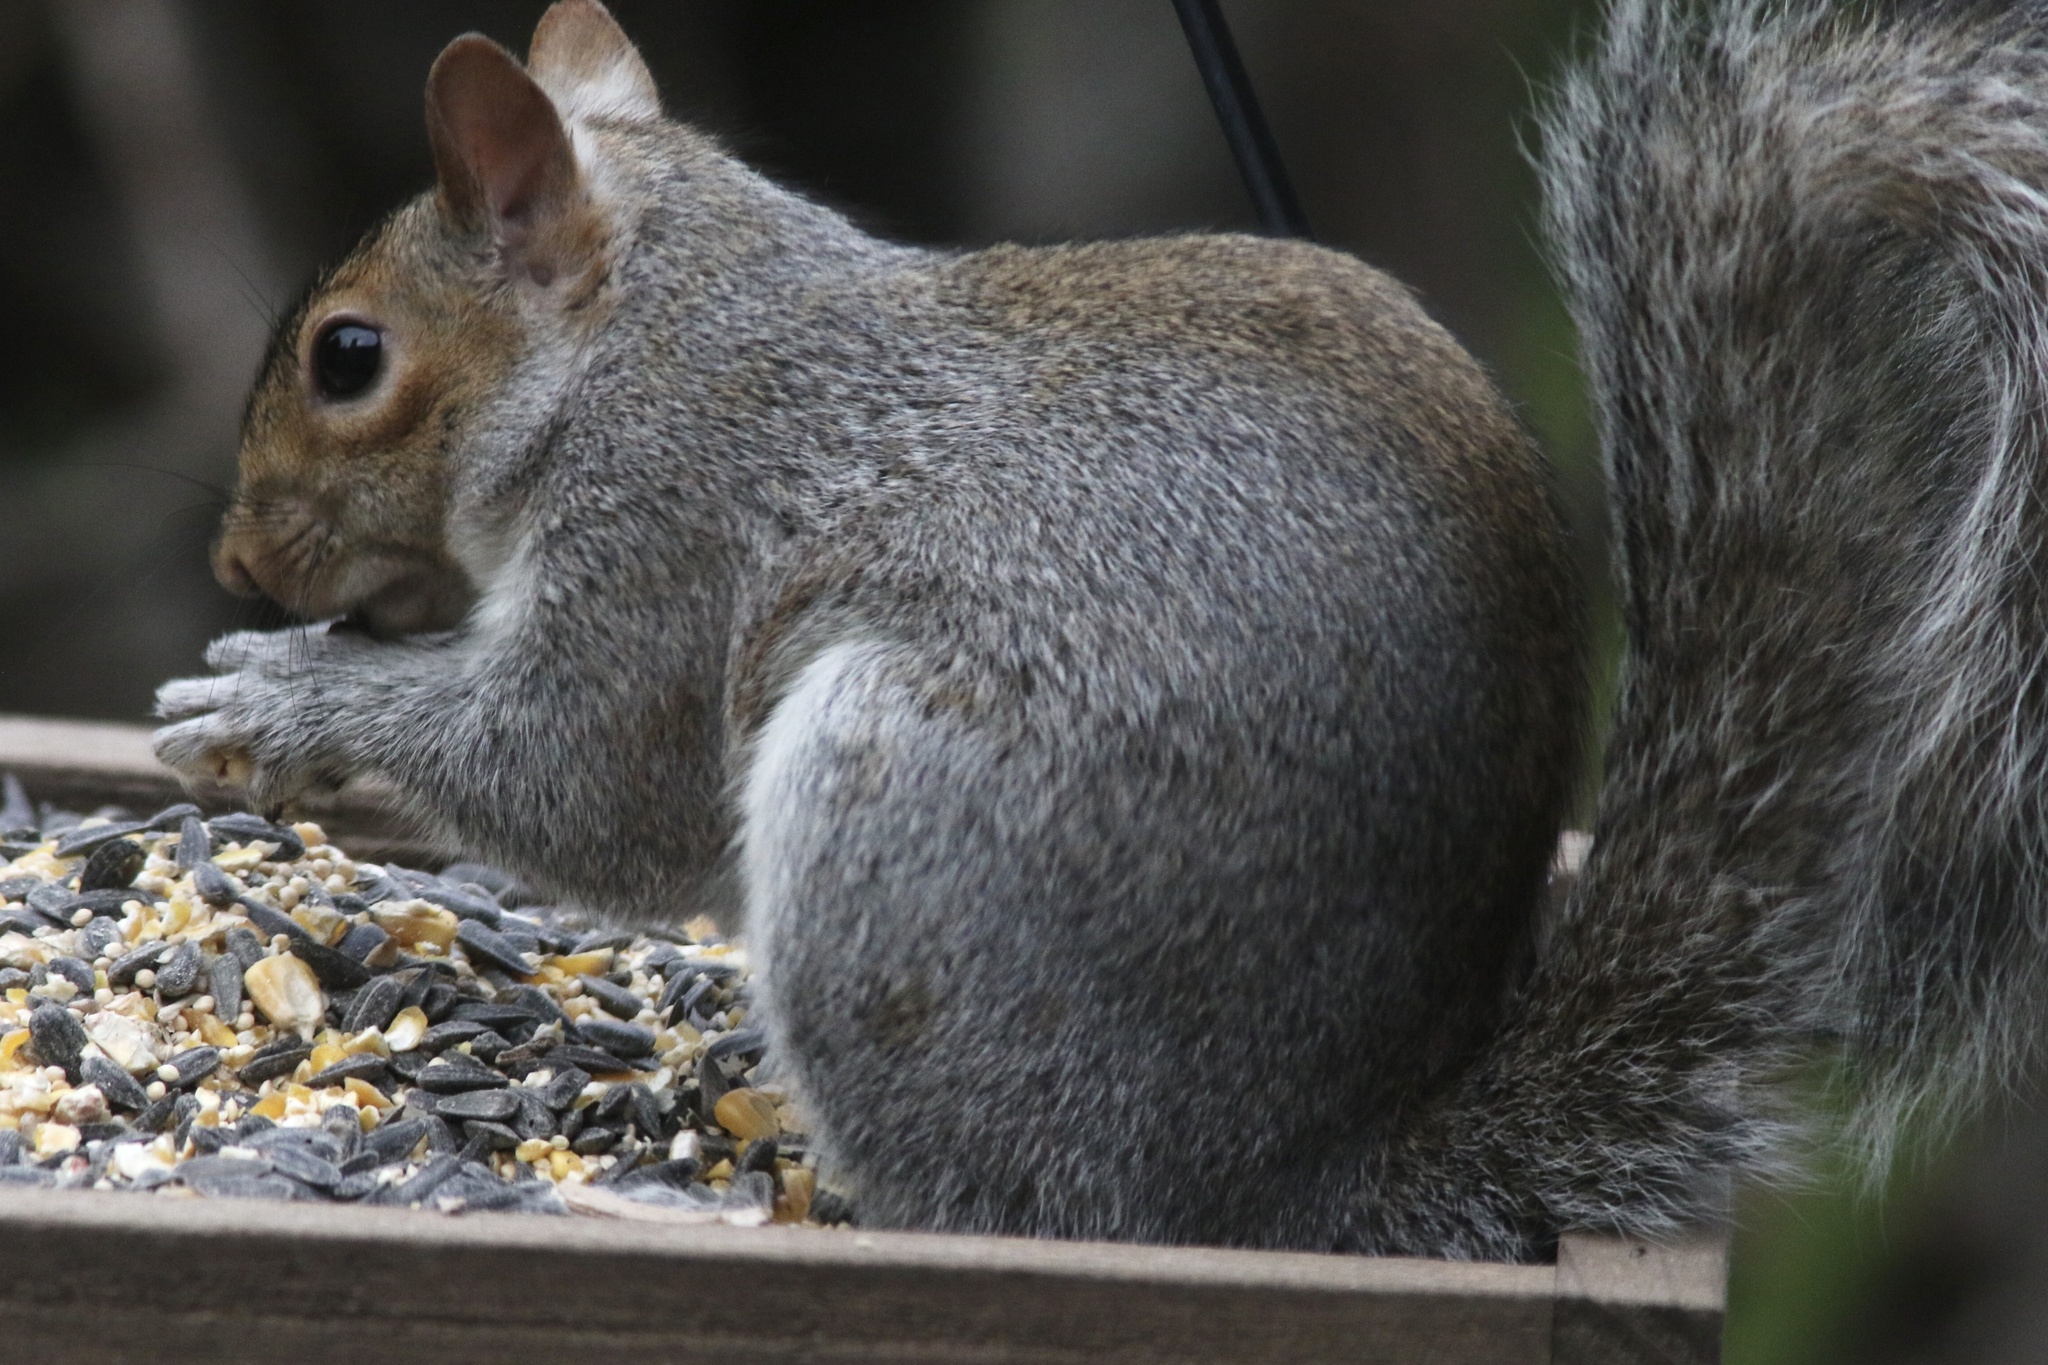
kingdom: Animalia
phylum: Chordata
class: Mammalia
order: Rodentia
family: Sciuridae
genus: Sciurus
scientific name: Sciurus carolinensis
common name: Eastern gray squirrel
